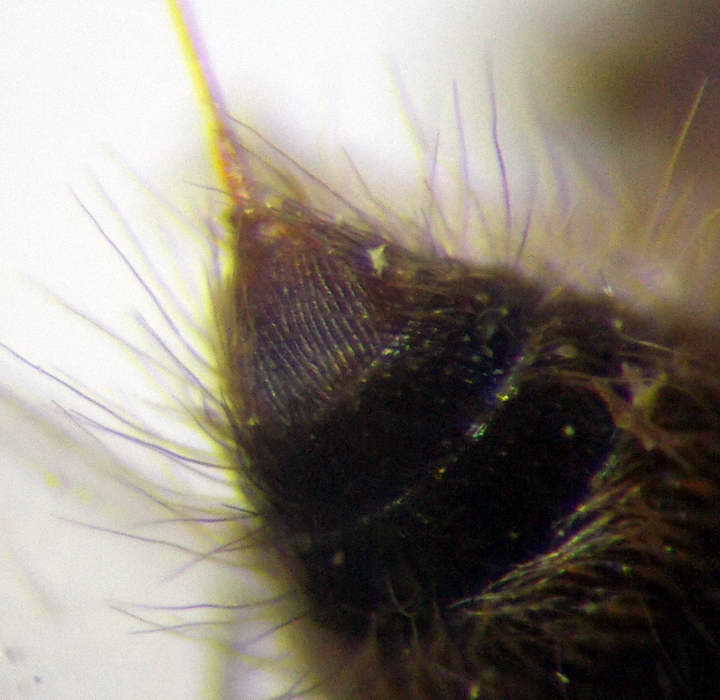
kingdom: Animalia
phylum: Arthropoda
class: Insecta
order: Hymenoptera
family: Mutillidae
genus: Smicromyrme
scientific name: Smicromyrme rufipes
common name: Small velvet ant
